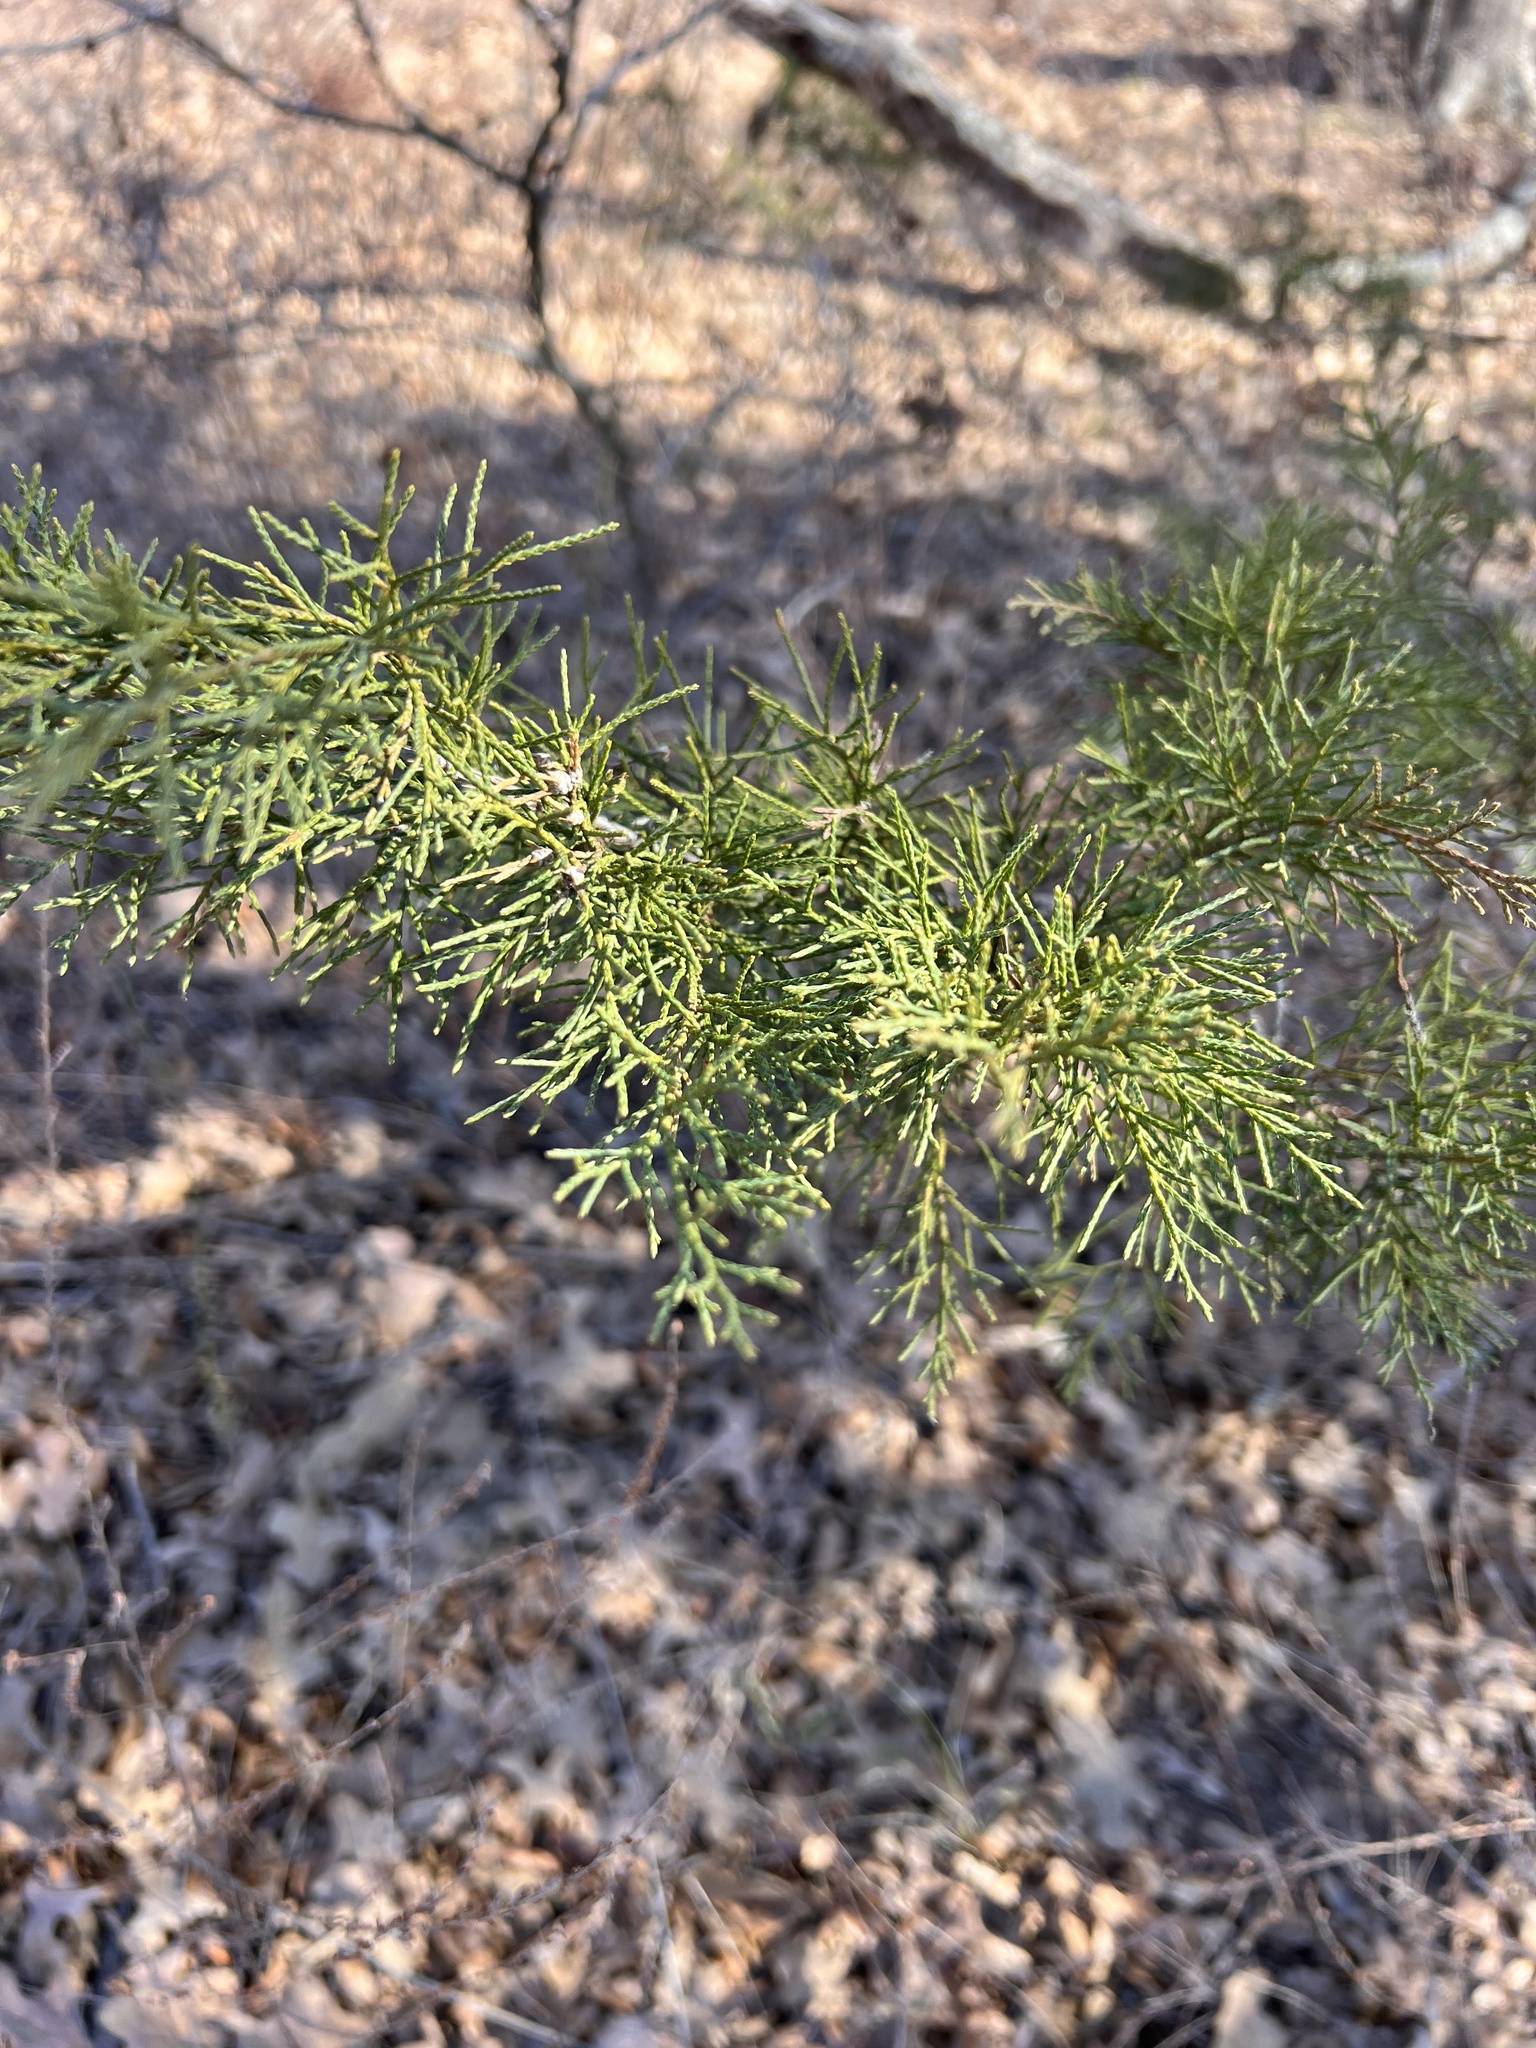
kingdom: Plantae
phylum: Tracheophyta
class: Pinopsida
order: Pinales
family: Cupressaceae
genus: Juniperus
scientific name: Juniperus virginiana
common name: Red juniper
